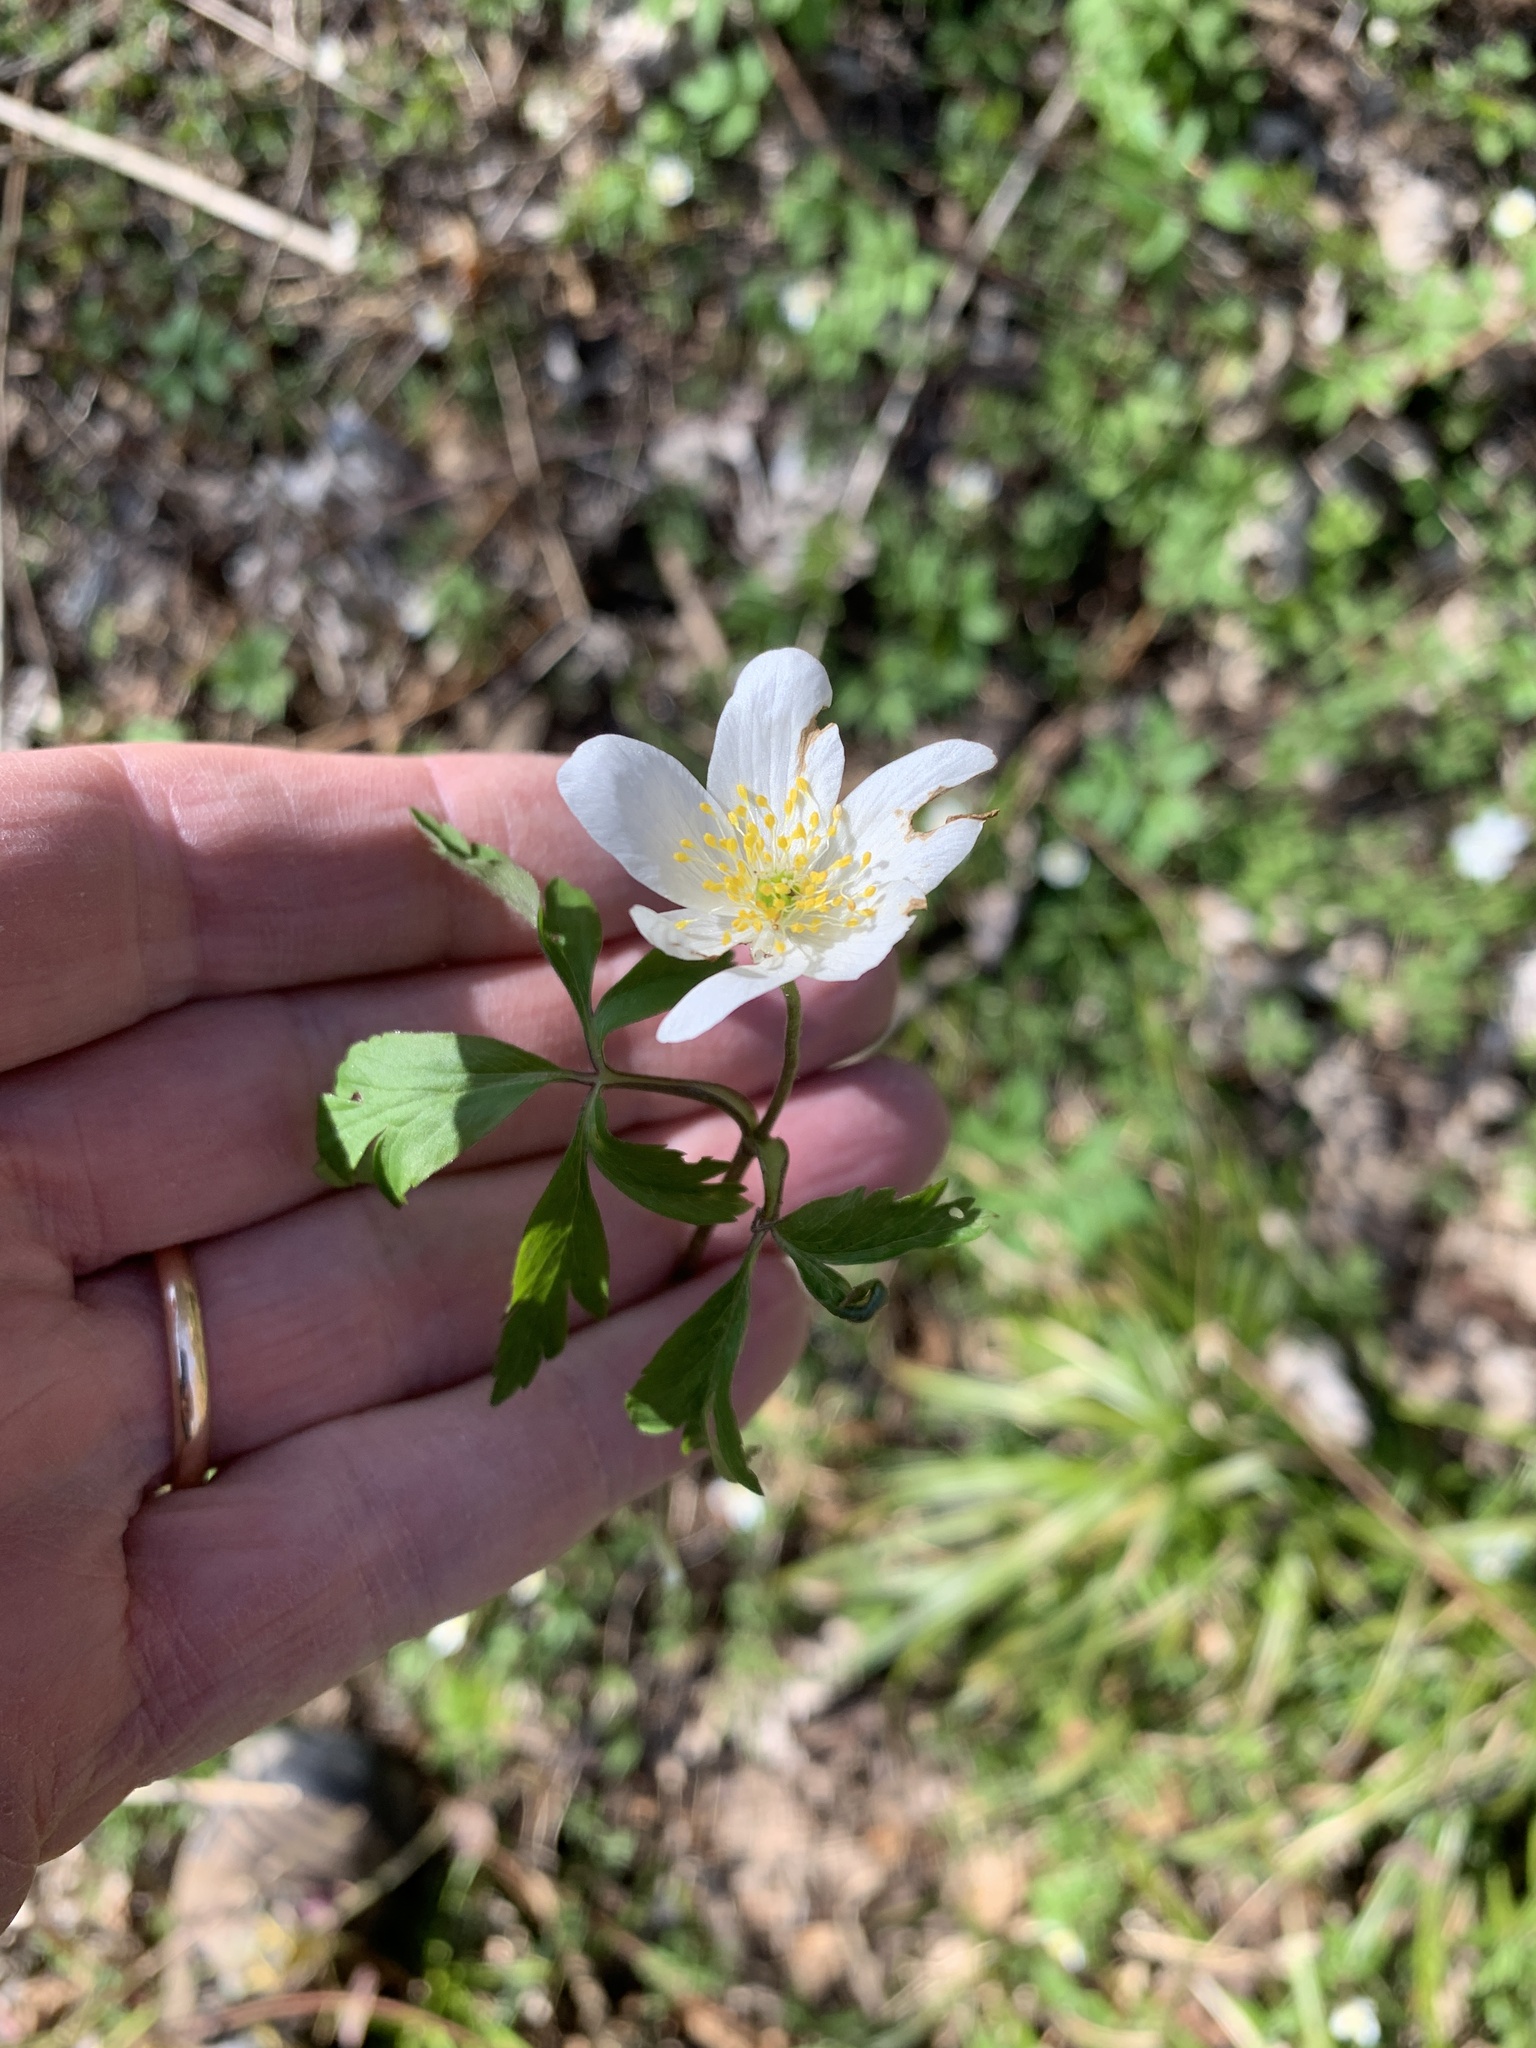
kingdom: Plantae
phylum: Tracheophyta
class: Magnoliopsida
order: Ranunculales
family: Ranunculaceae
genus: Anemone
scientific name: Anemone nemorosa
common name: Wood anemone
